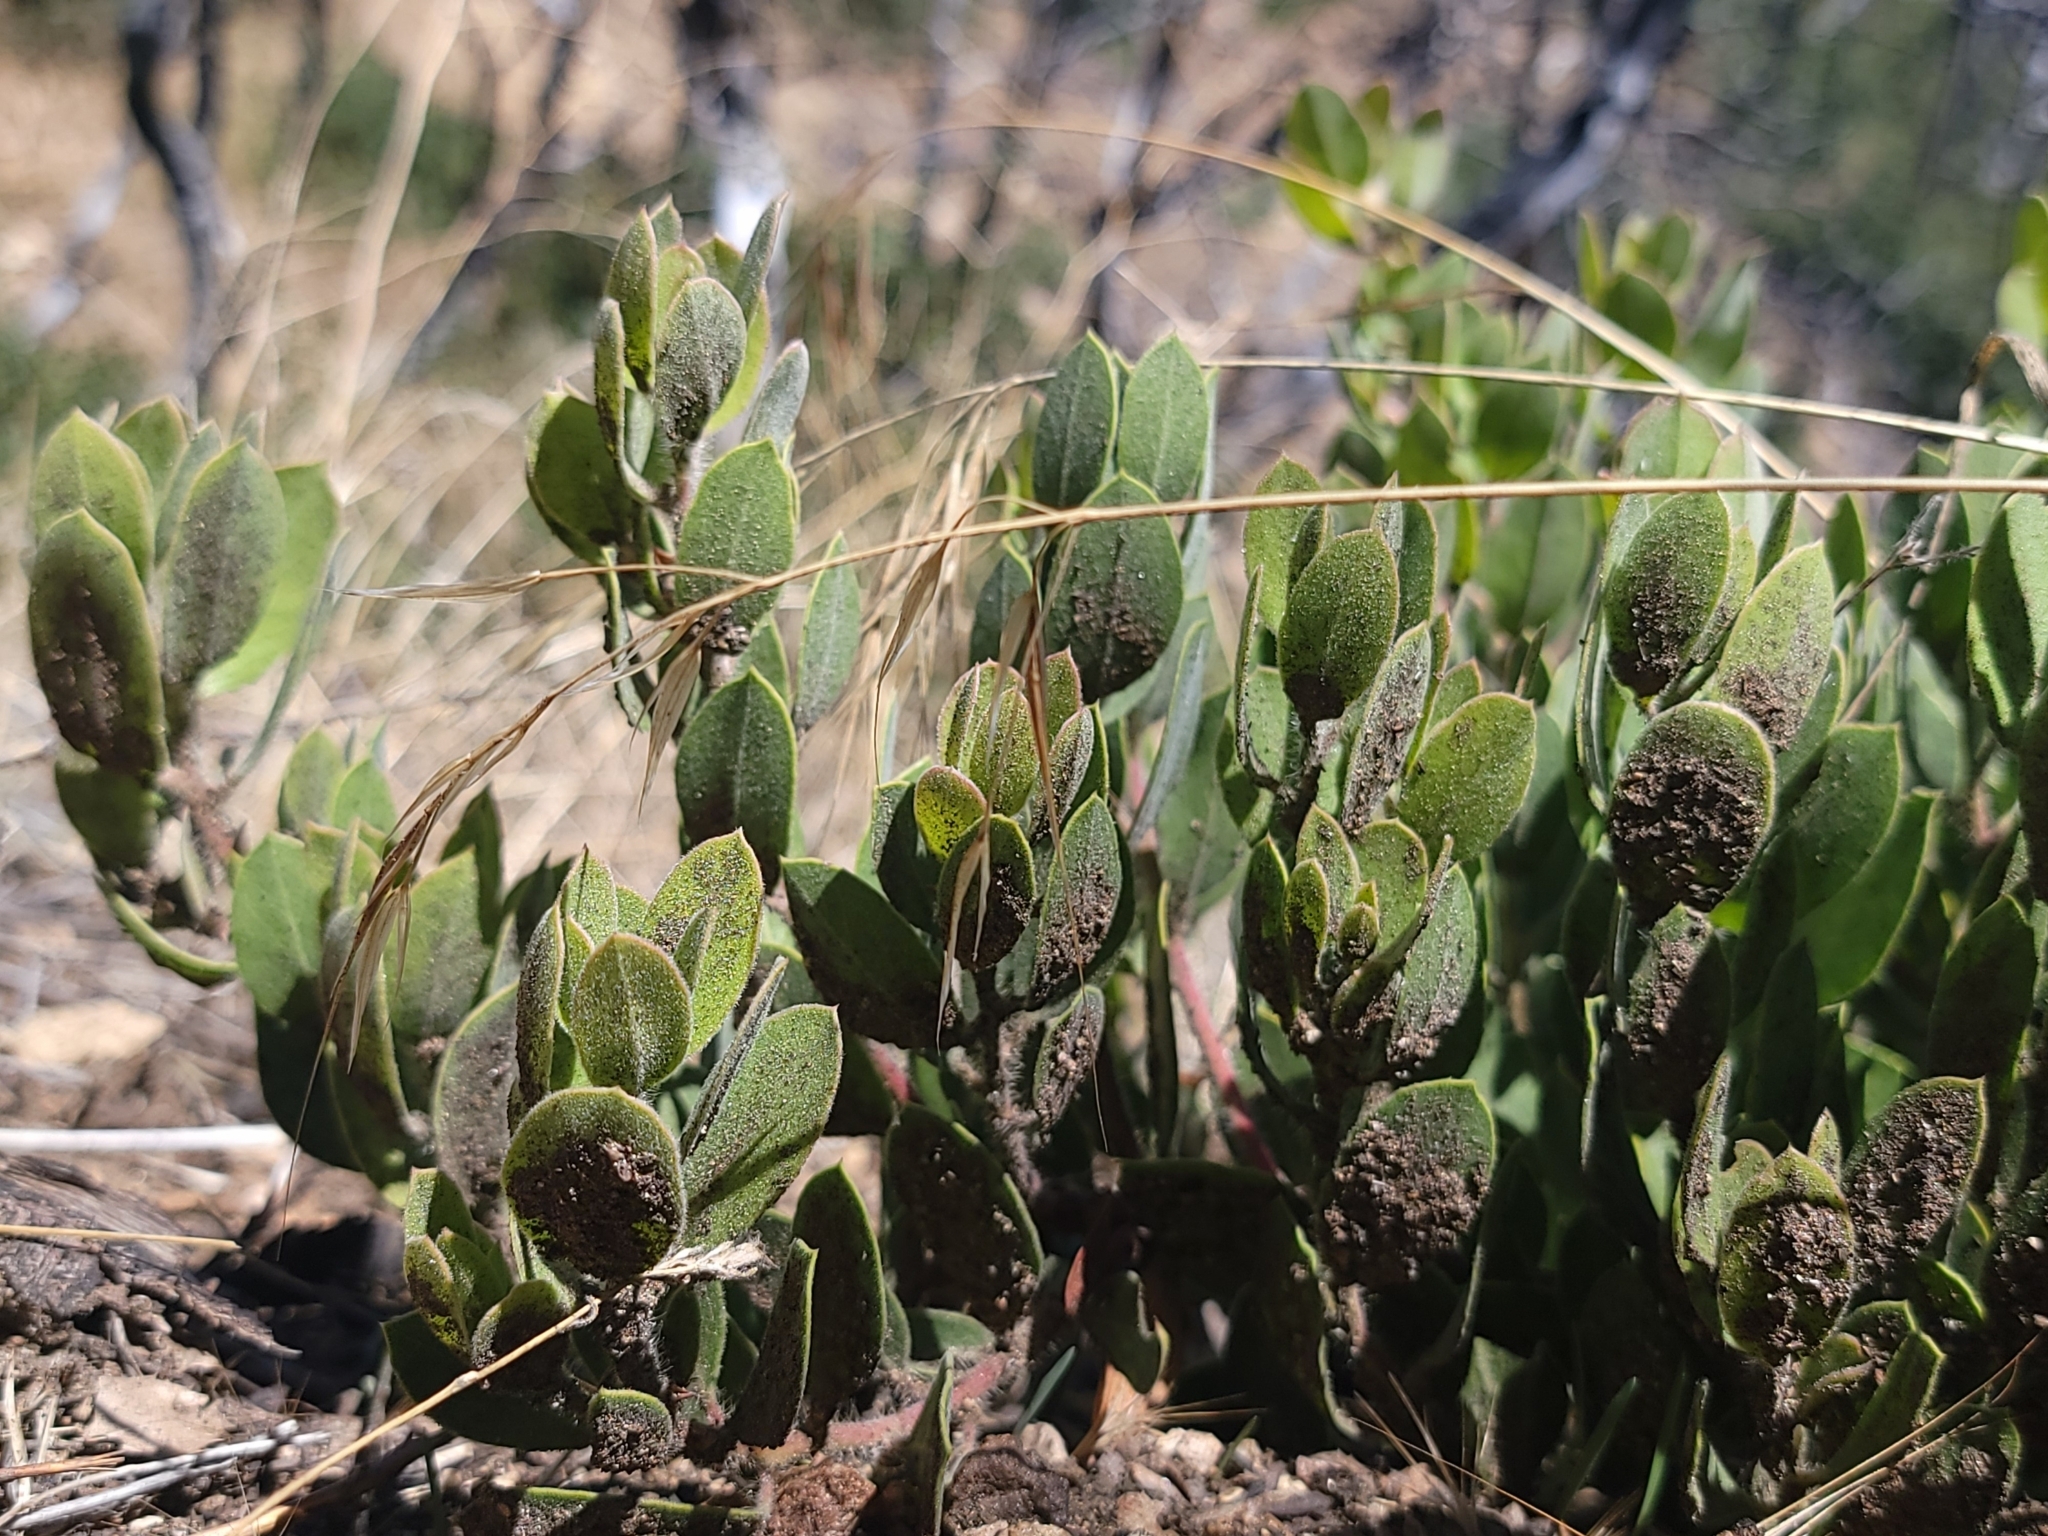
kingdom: Plantae
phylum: Tracheophyta
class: Magnoliopsida
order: Ericales
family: Ericaceae
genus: Arctostaphylos
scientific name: Arctostaphylos glandulosa
